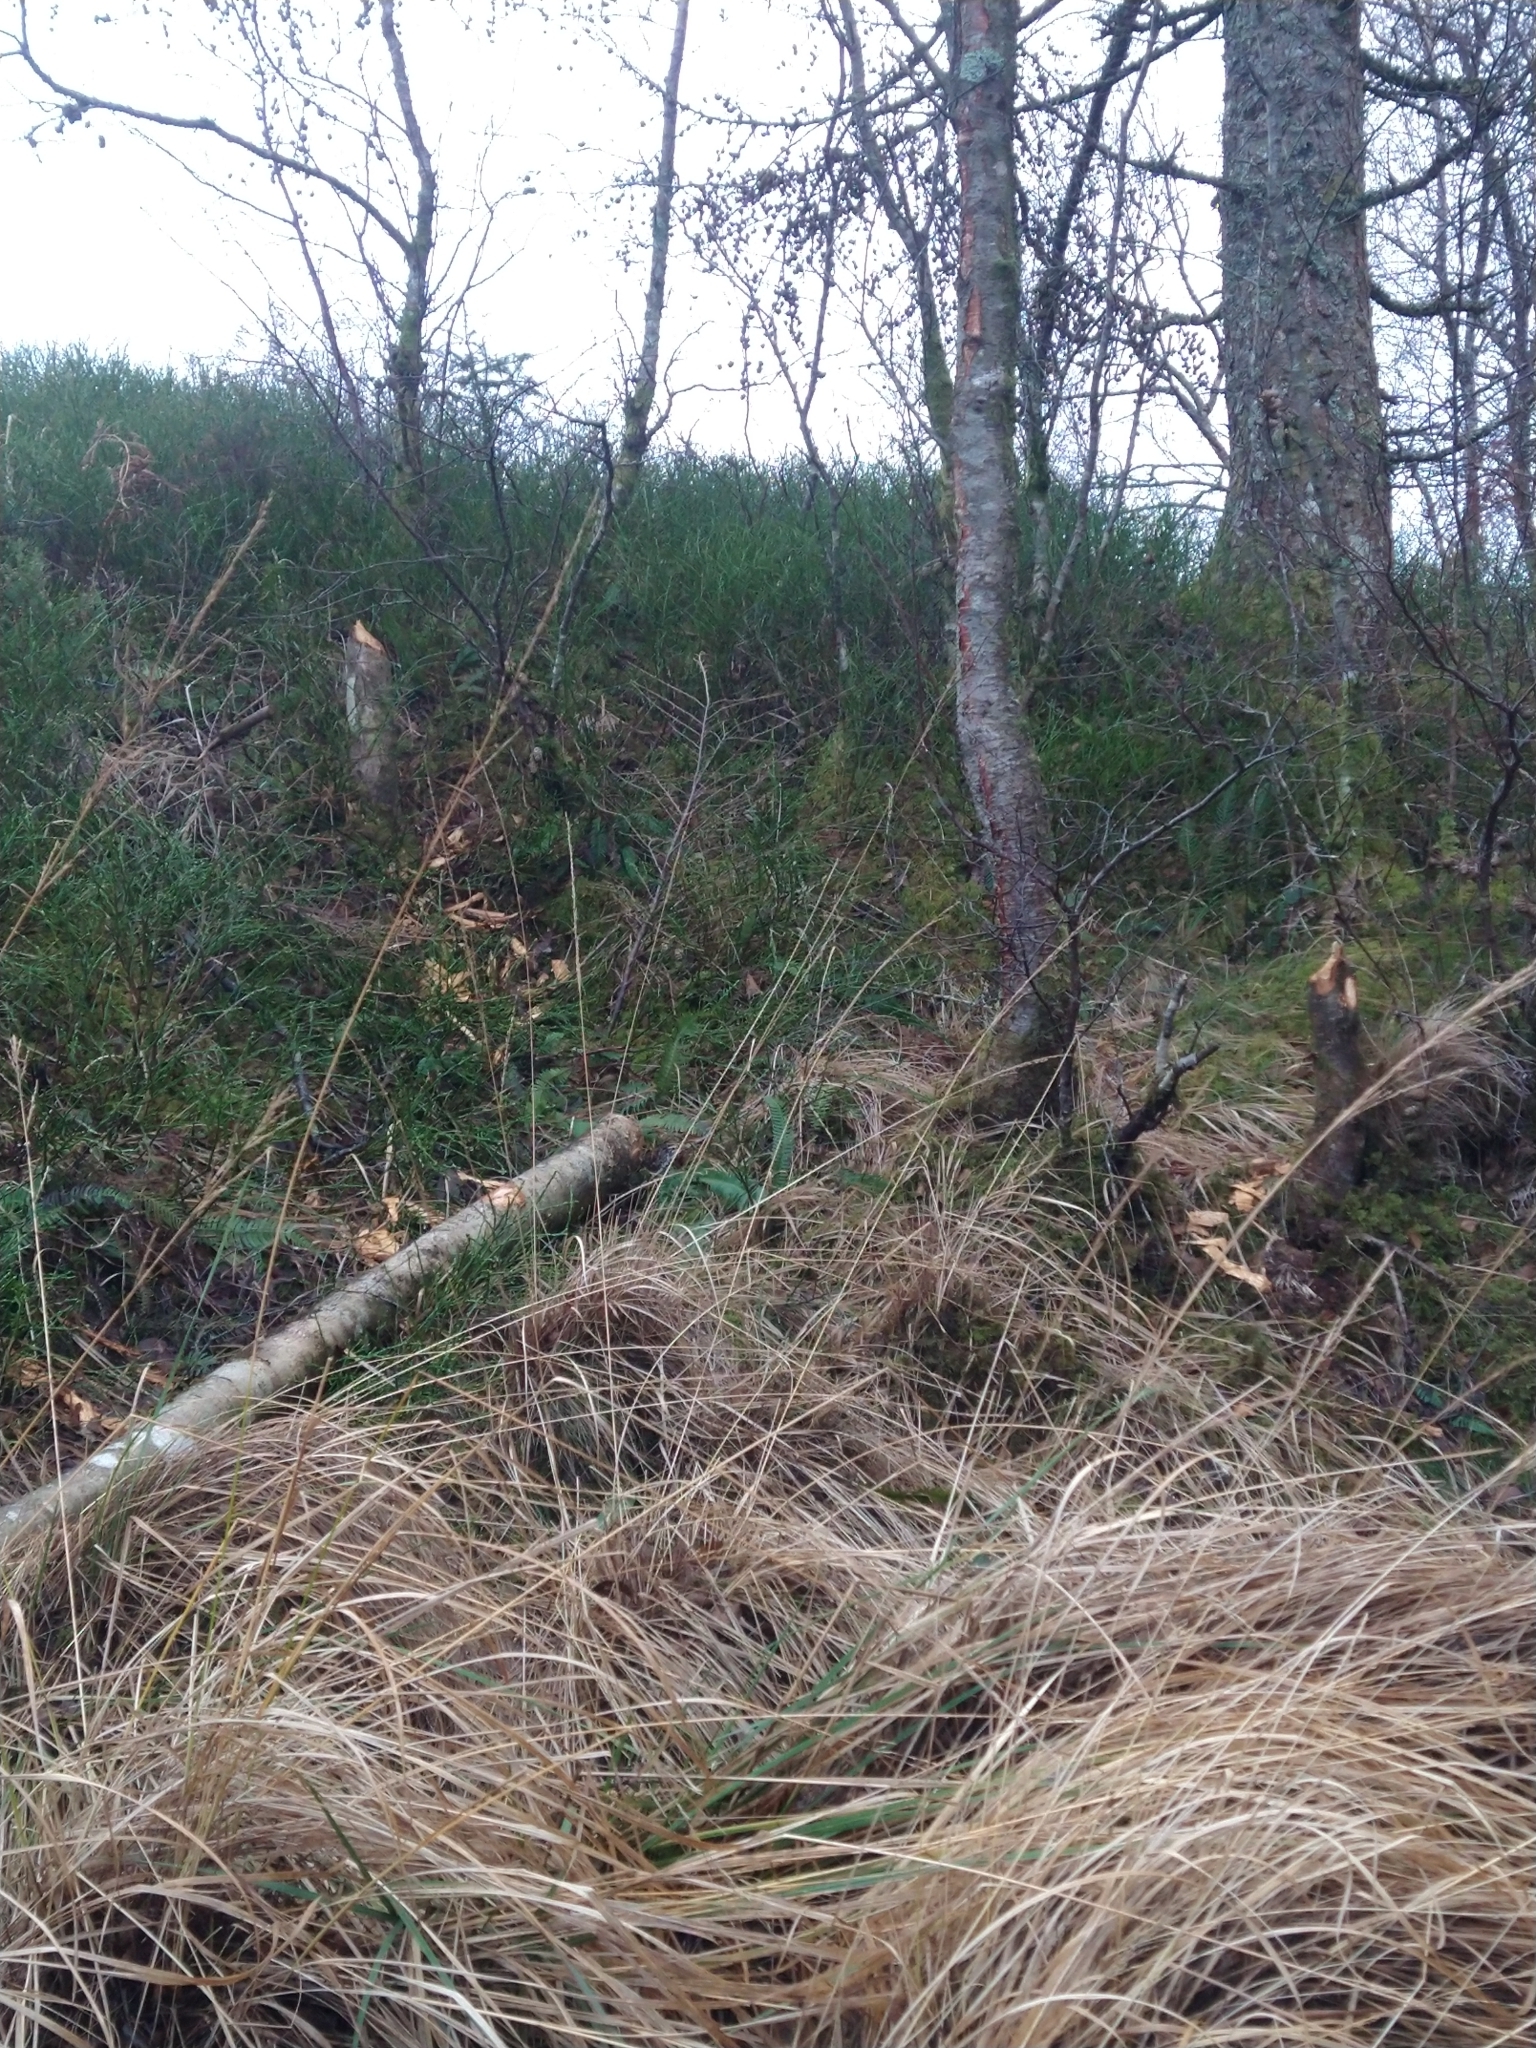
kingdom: Animalia
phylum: Chordata
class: Mammalia
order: Rodentia
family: Castoridae
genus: Castor
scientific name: Castor fiber
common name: Eurasian beaver
